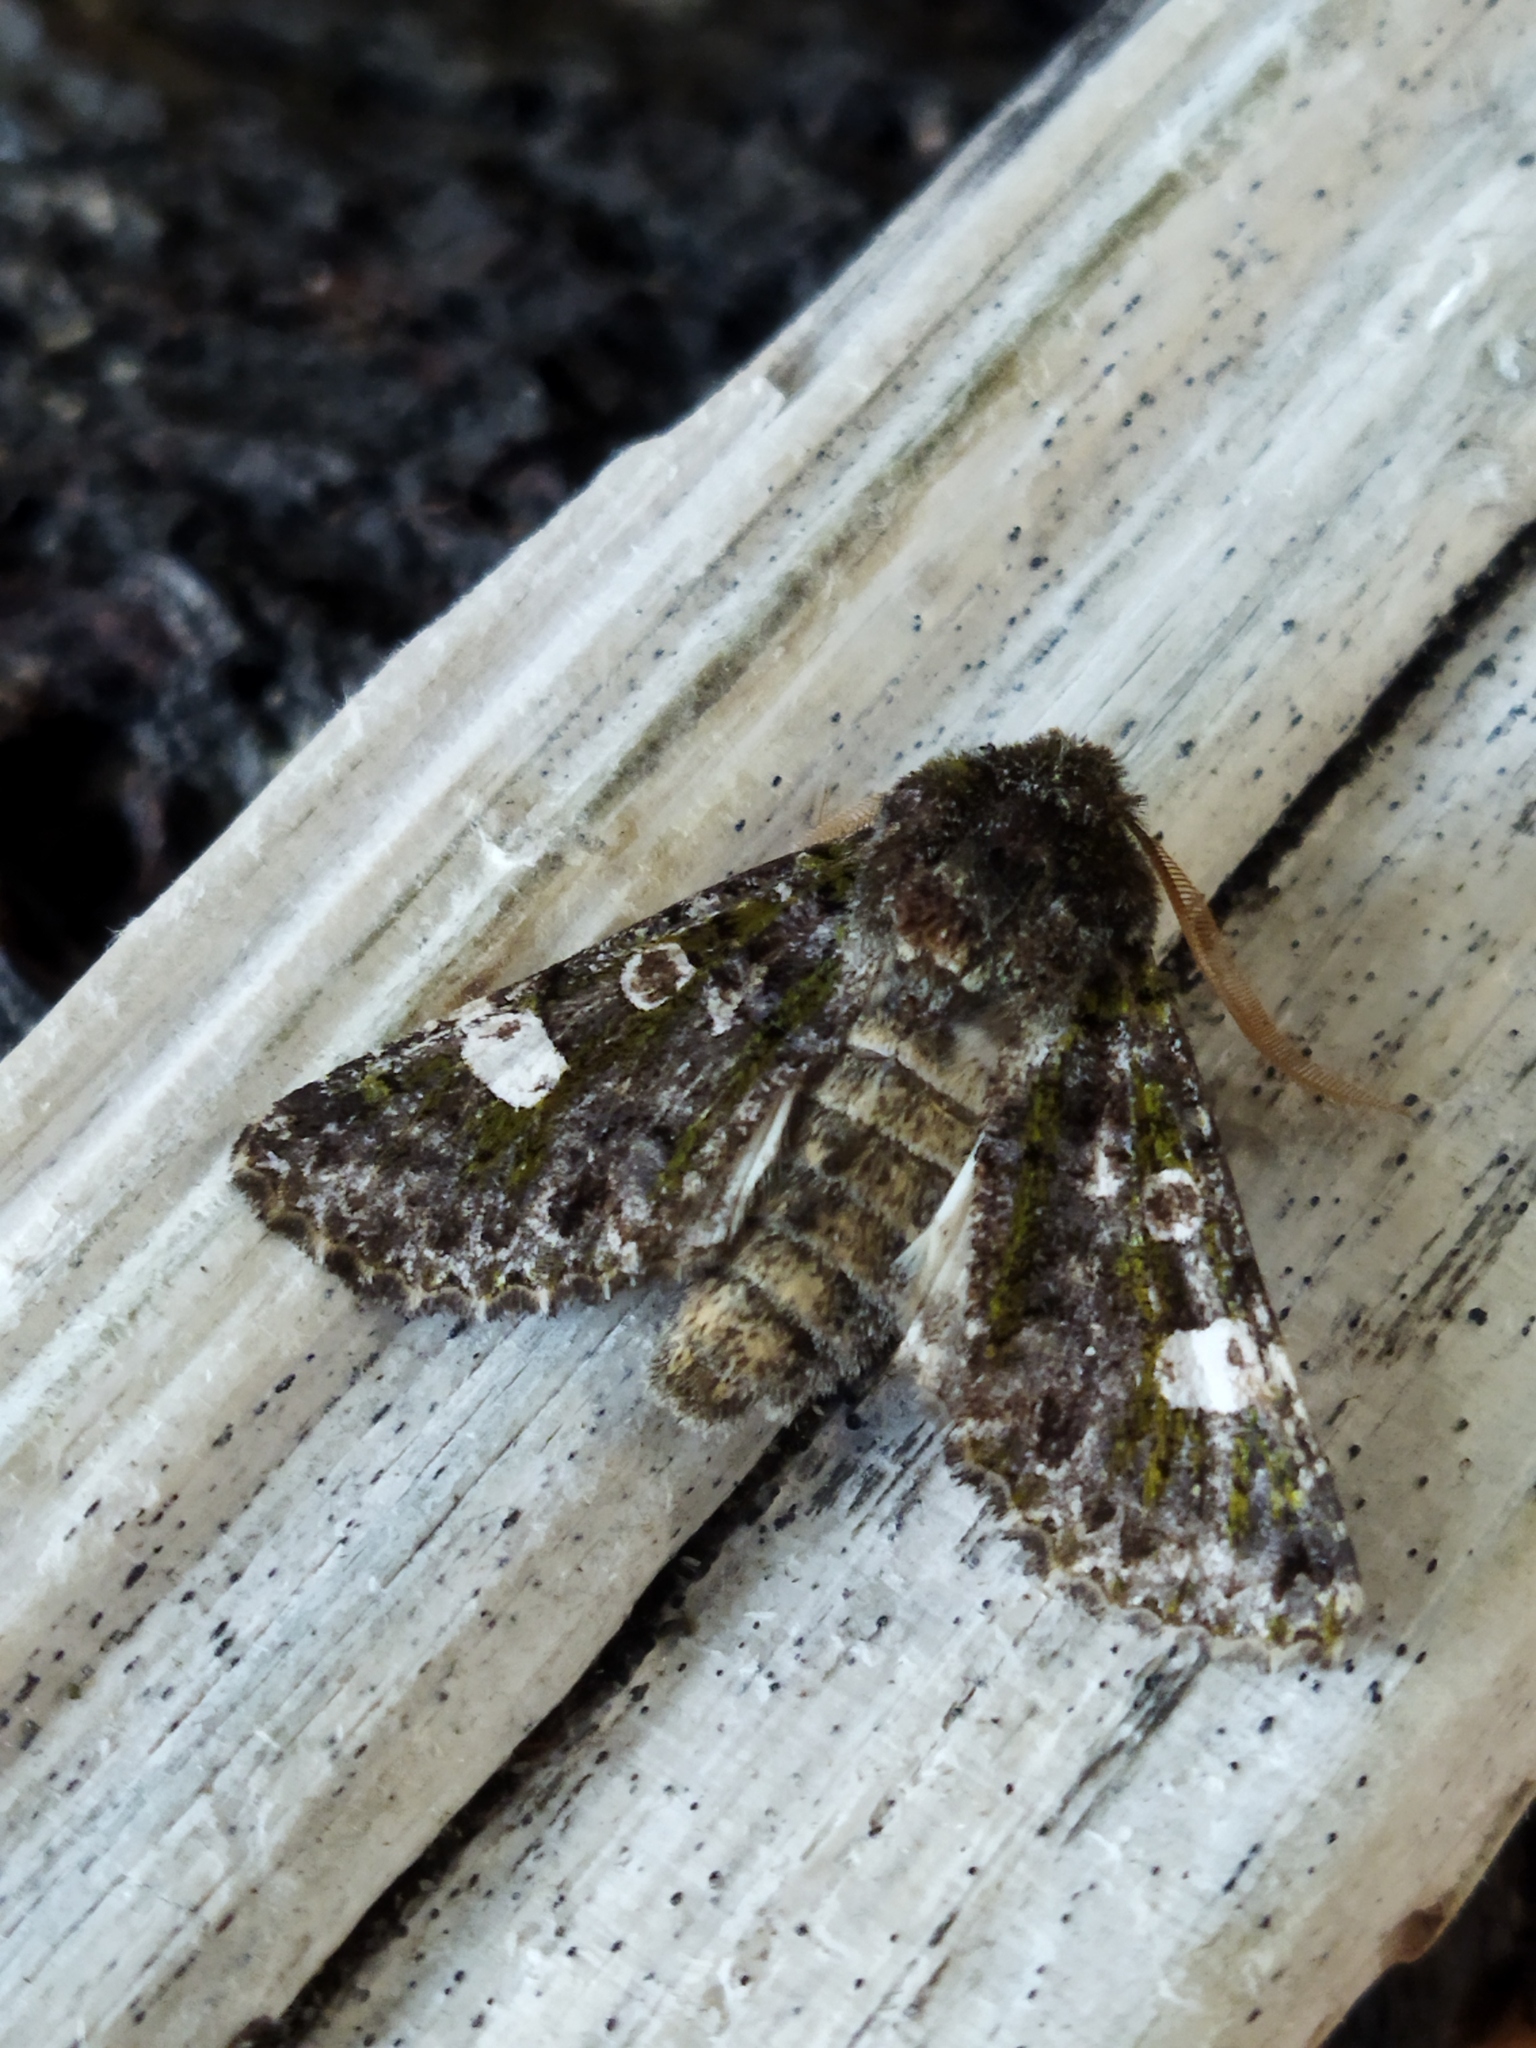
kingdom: Animalia
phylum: Arthropoda
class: Insecta
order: Lepidoptera
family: Noctuidae
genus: Valeria
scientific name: Valeria oleagina
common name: Green-brindled dot
